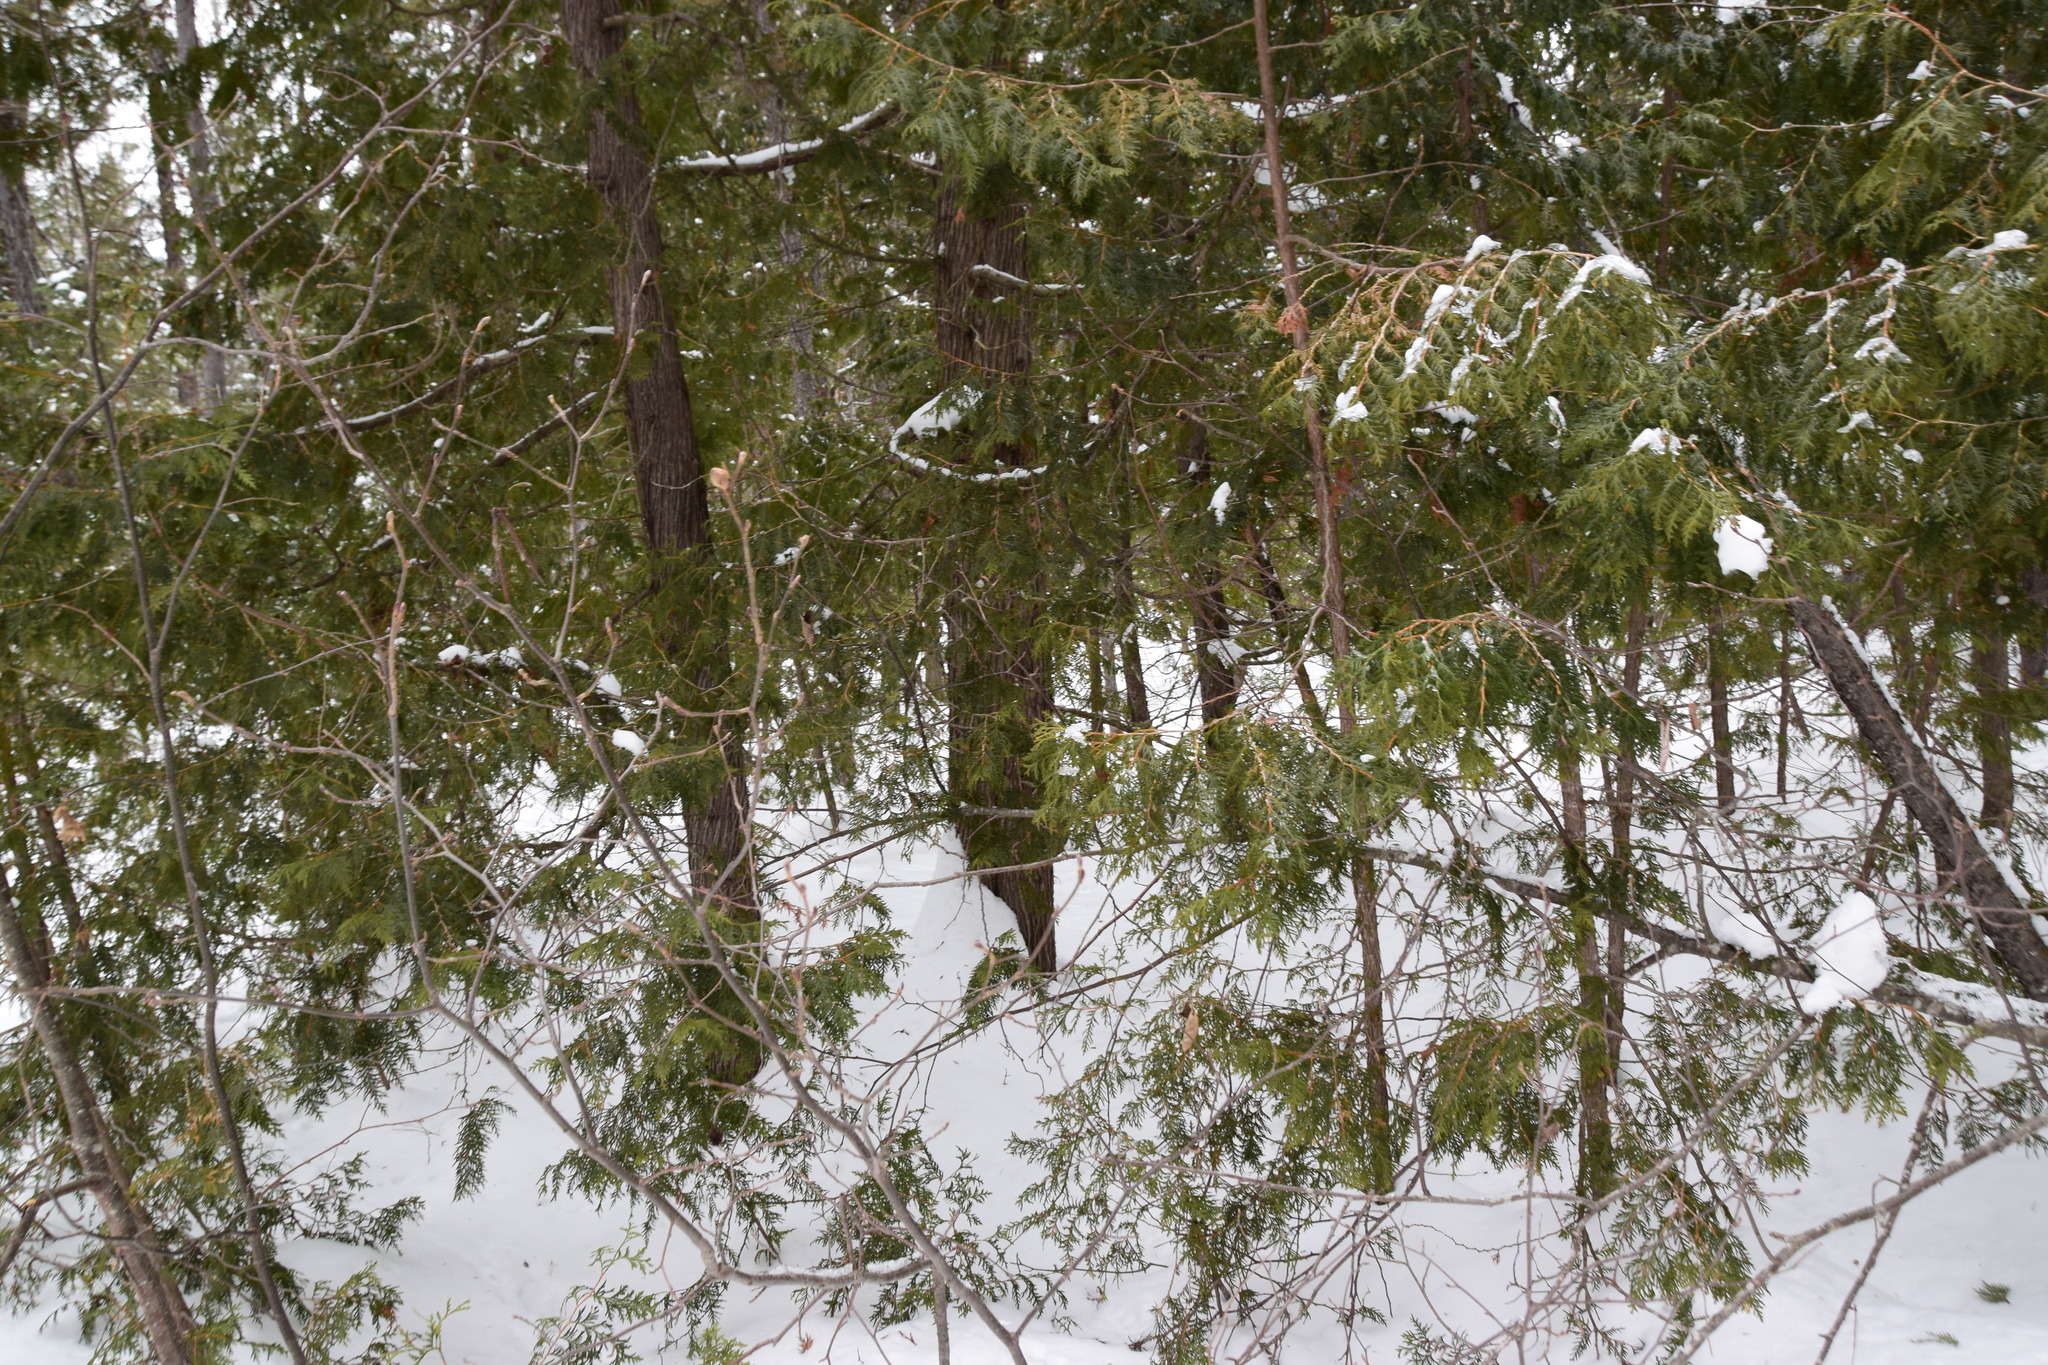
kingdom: Plantae
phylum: Tracheophyta
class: Pinopsida
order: Pinales
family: Cupressaceae
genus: Thuja
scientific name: Thuja occidentalis
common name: Northern white-cedar
